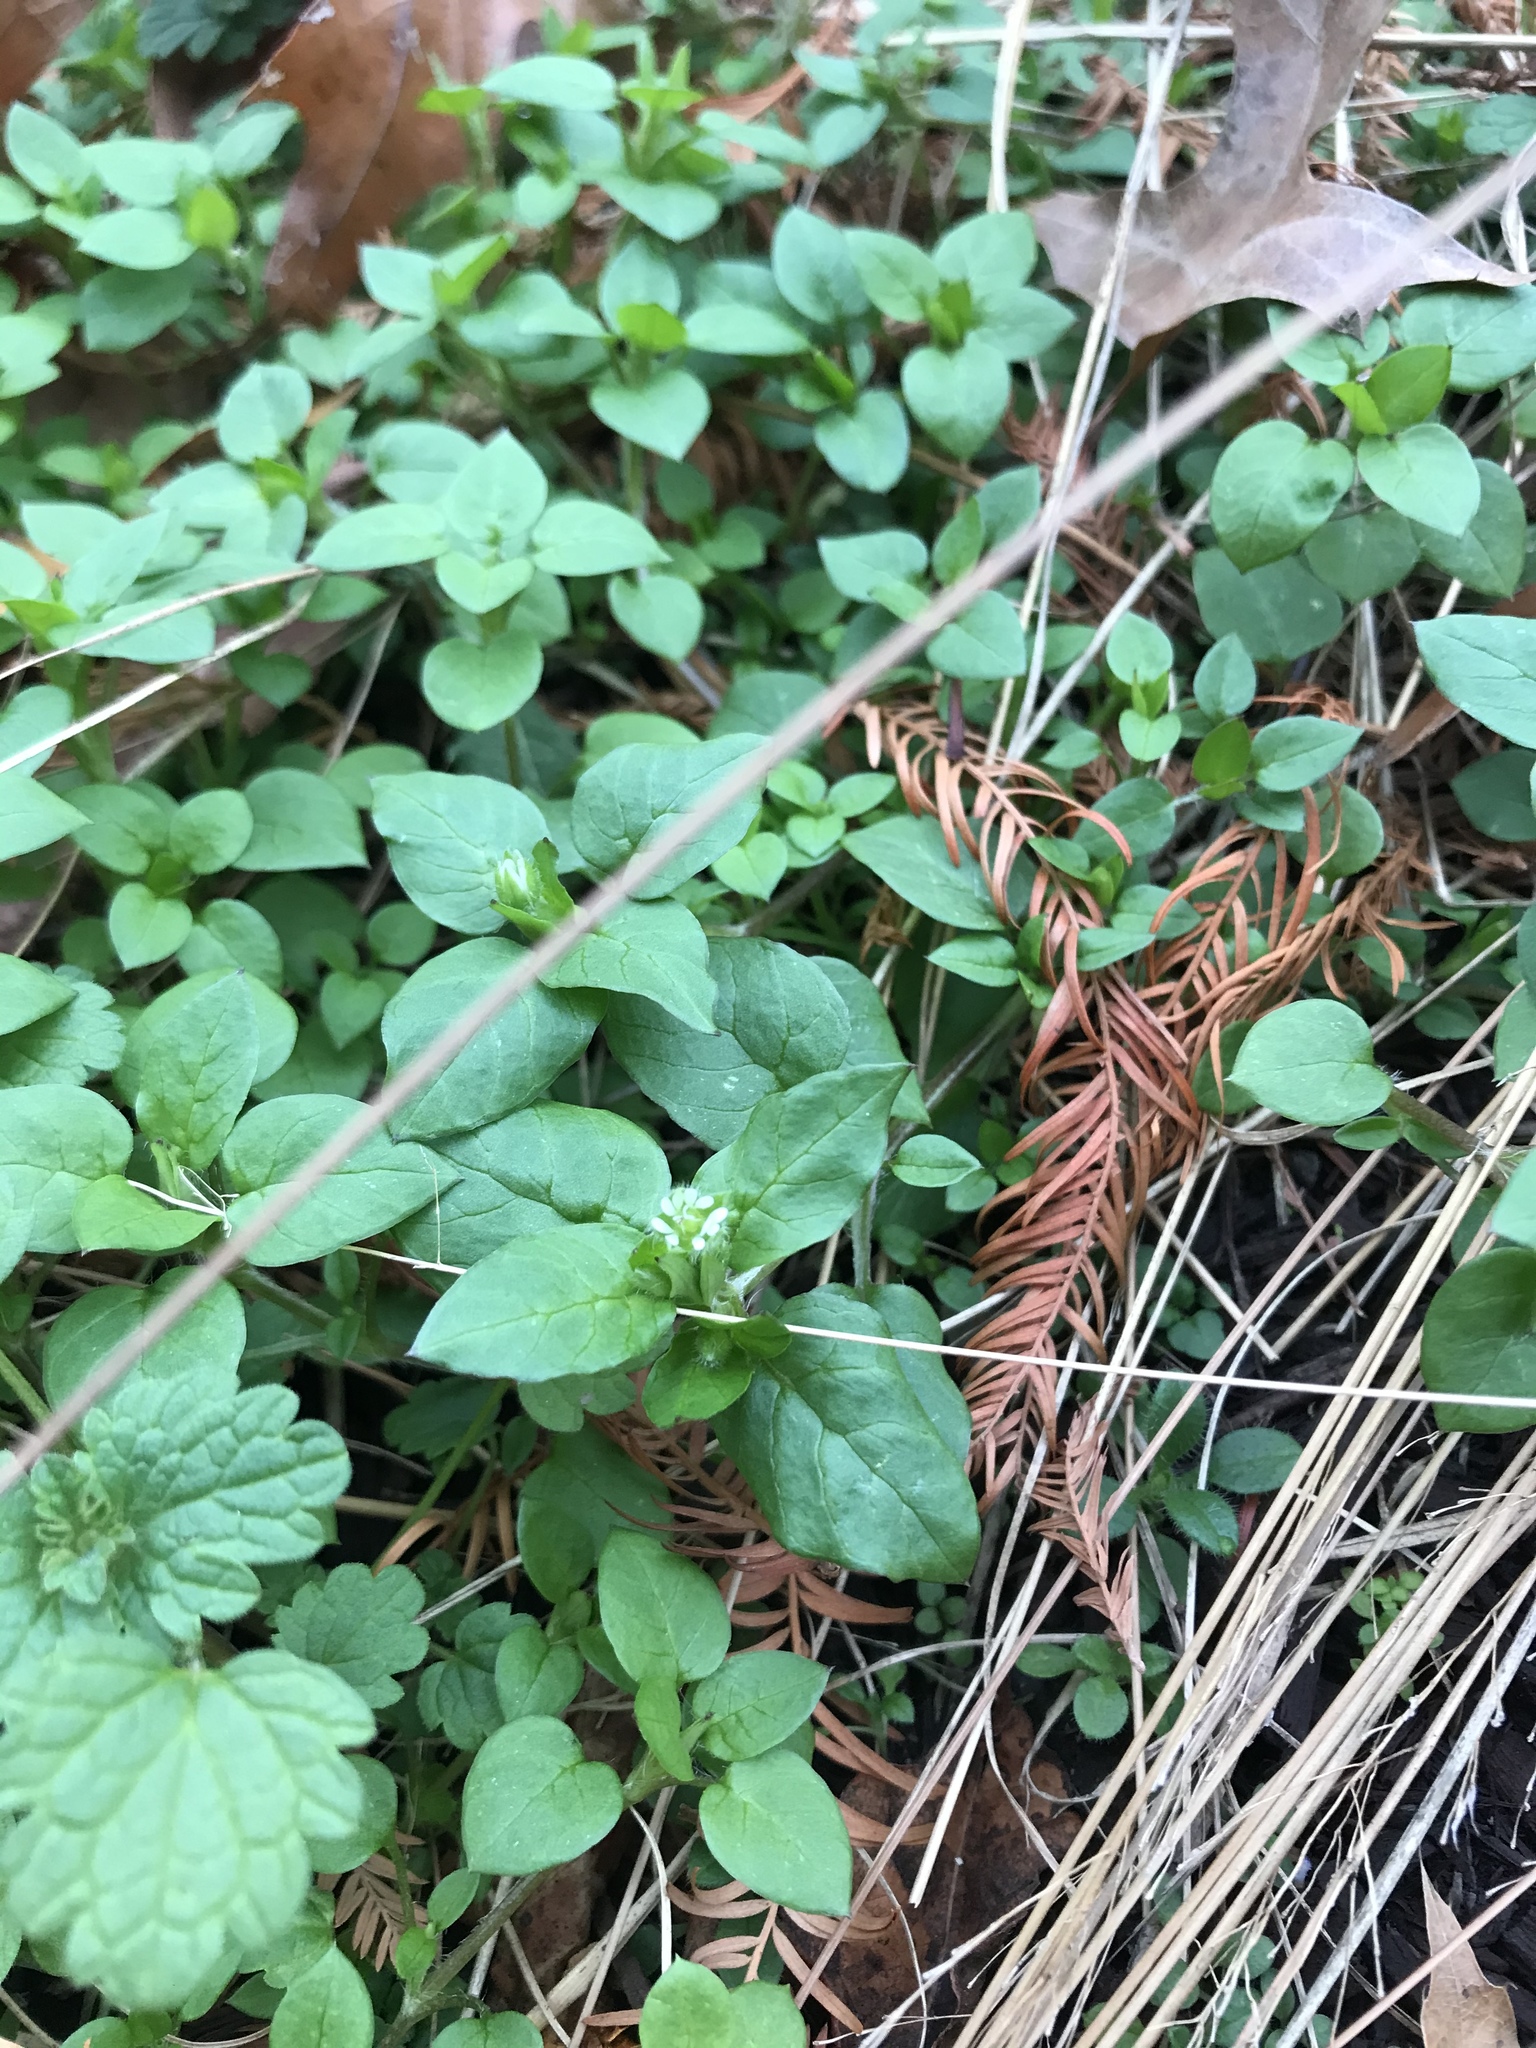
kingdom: Plantae
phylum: Tracheophyta
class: Magnoliopsida
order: Caryophyllales
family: Caryophyllaceae
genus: Stellaria
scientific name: Stellaria media
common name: Common chickweed
